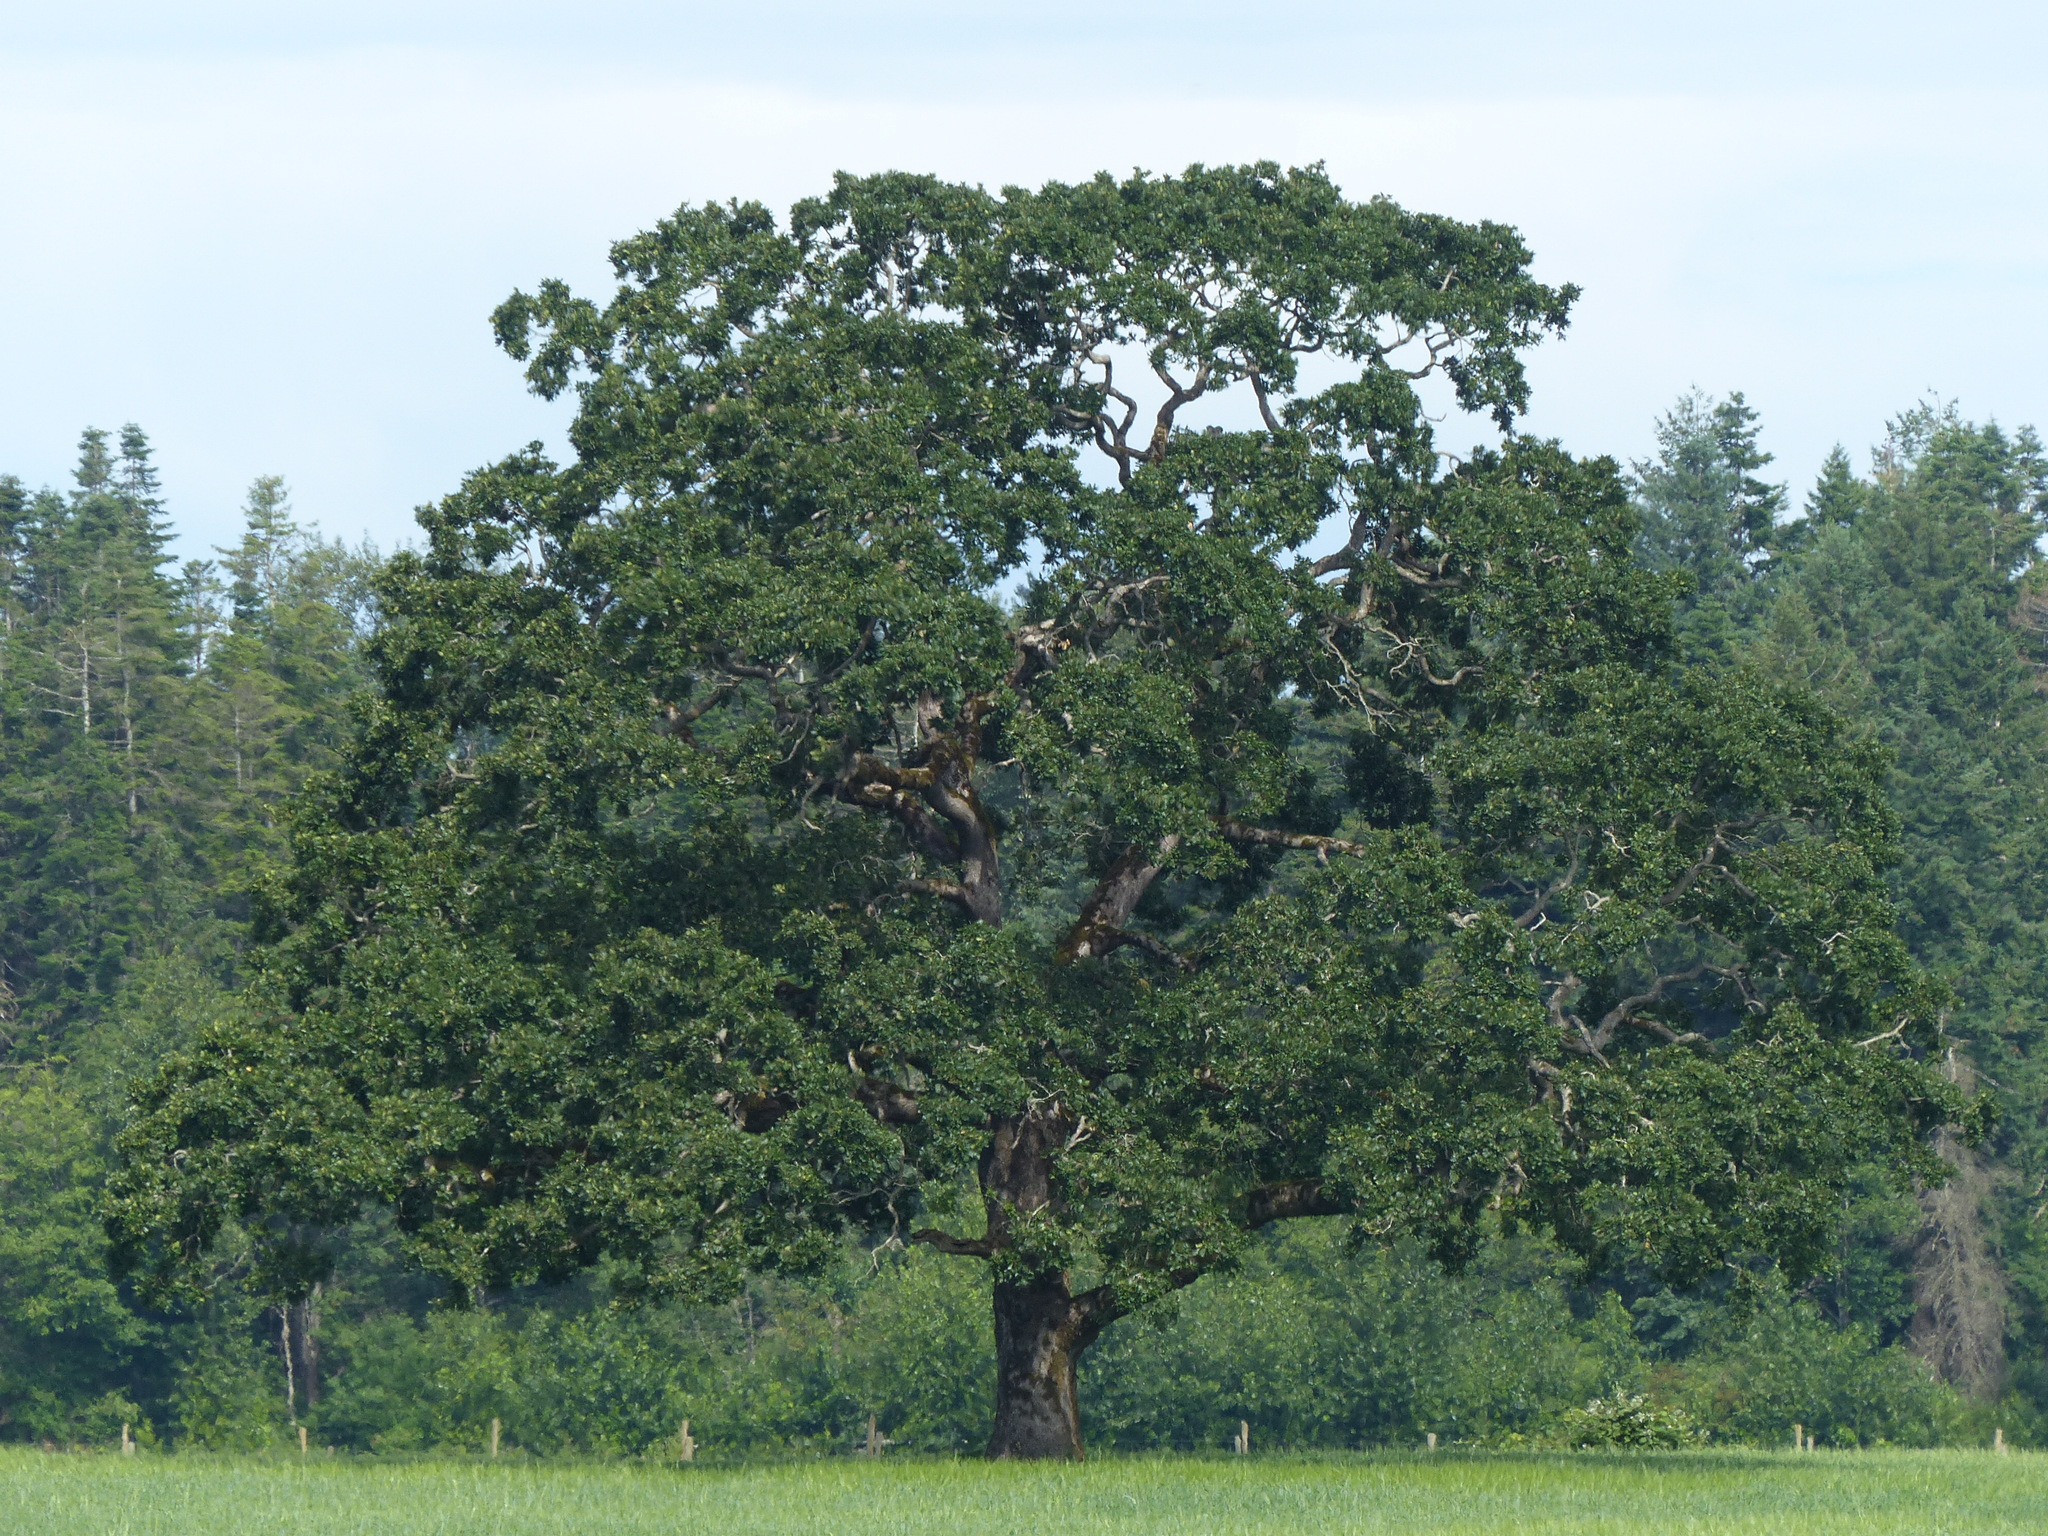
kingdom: Plantae
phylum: Tracheophyta
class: Magnoliopsida
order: Fagales
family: Fagaceae
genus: Quercus
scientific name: Quercus garryana
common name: Garry oak
